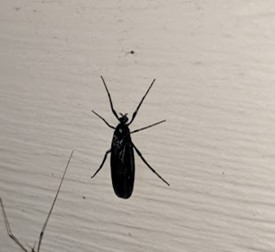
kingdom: Animalia
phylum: Arthropoda
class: Insecta
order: Diptera
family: Bibionidae
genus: Penthetria
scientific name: Penthetria heteroptera
